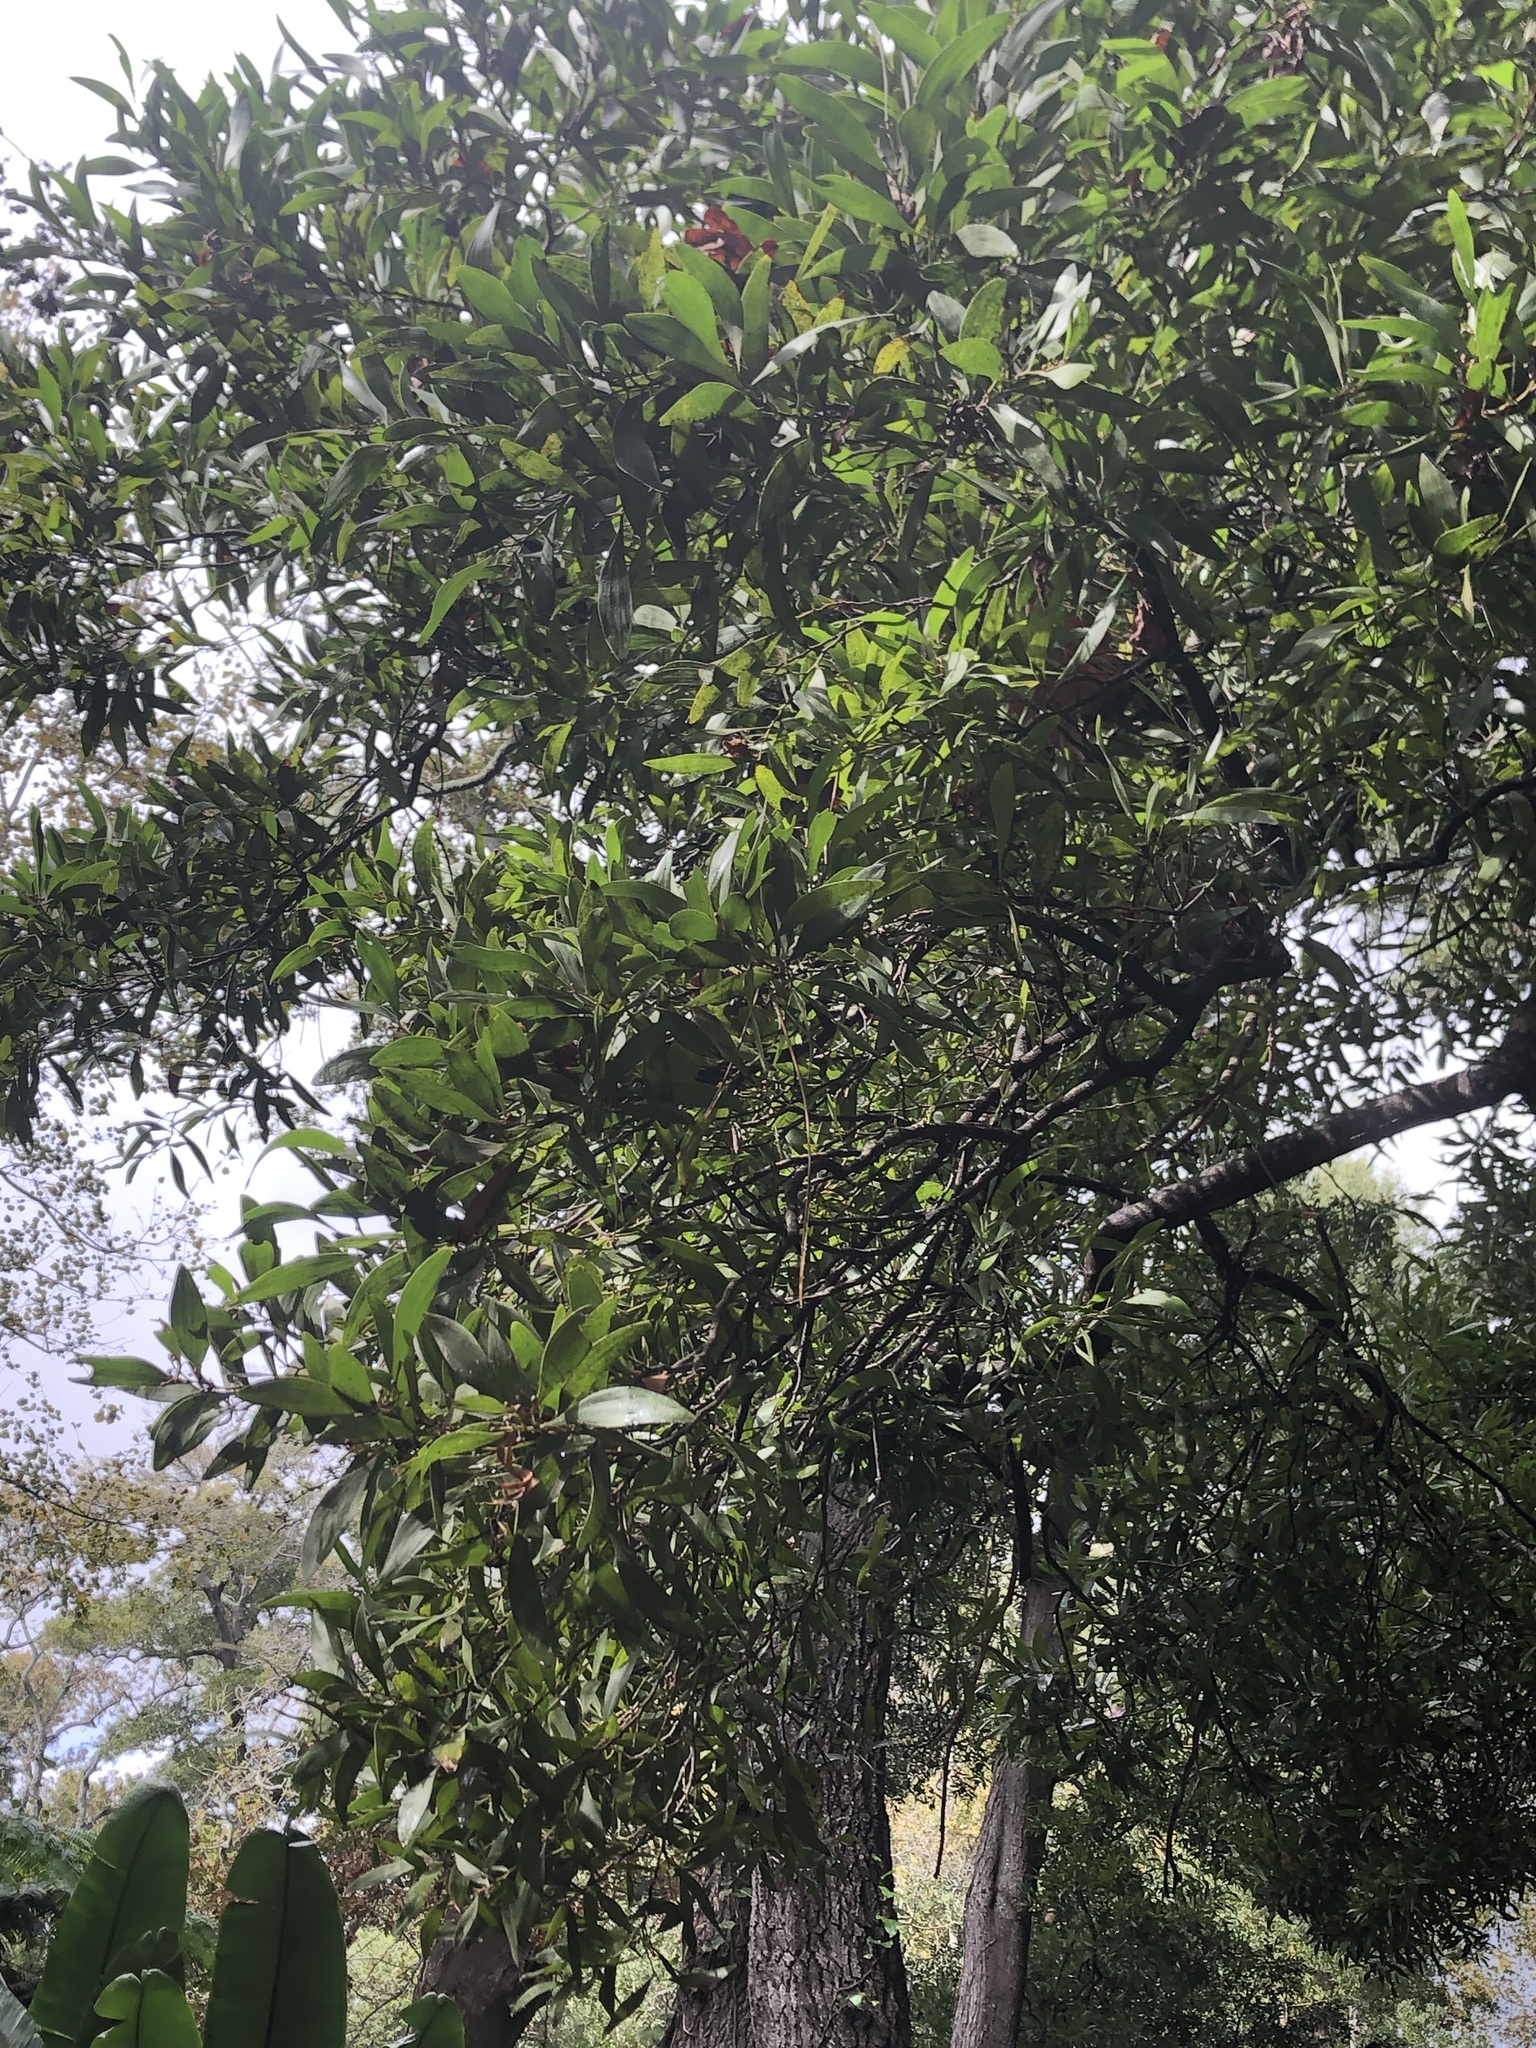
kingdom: Plantae
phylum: Tracheophyta
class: Magnoliopsida
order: Fabales
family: Fabaceae
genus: Acacia
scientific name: Acacia melanoxylon
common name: Blackwood
